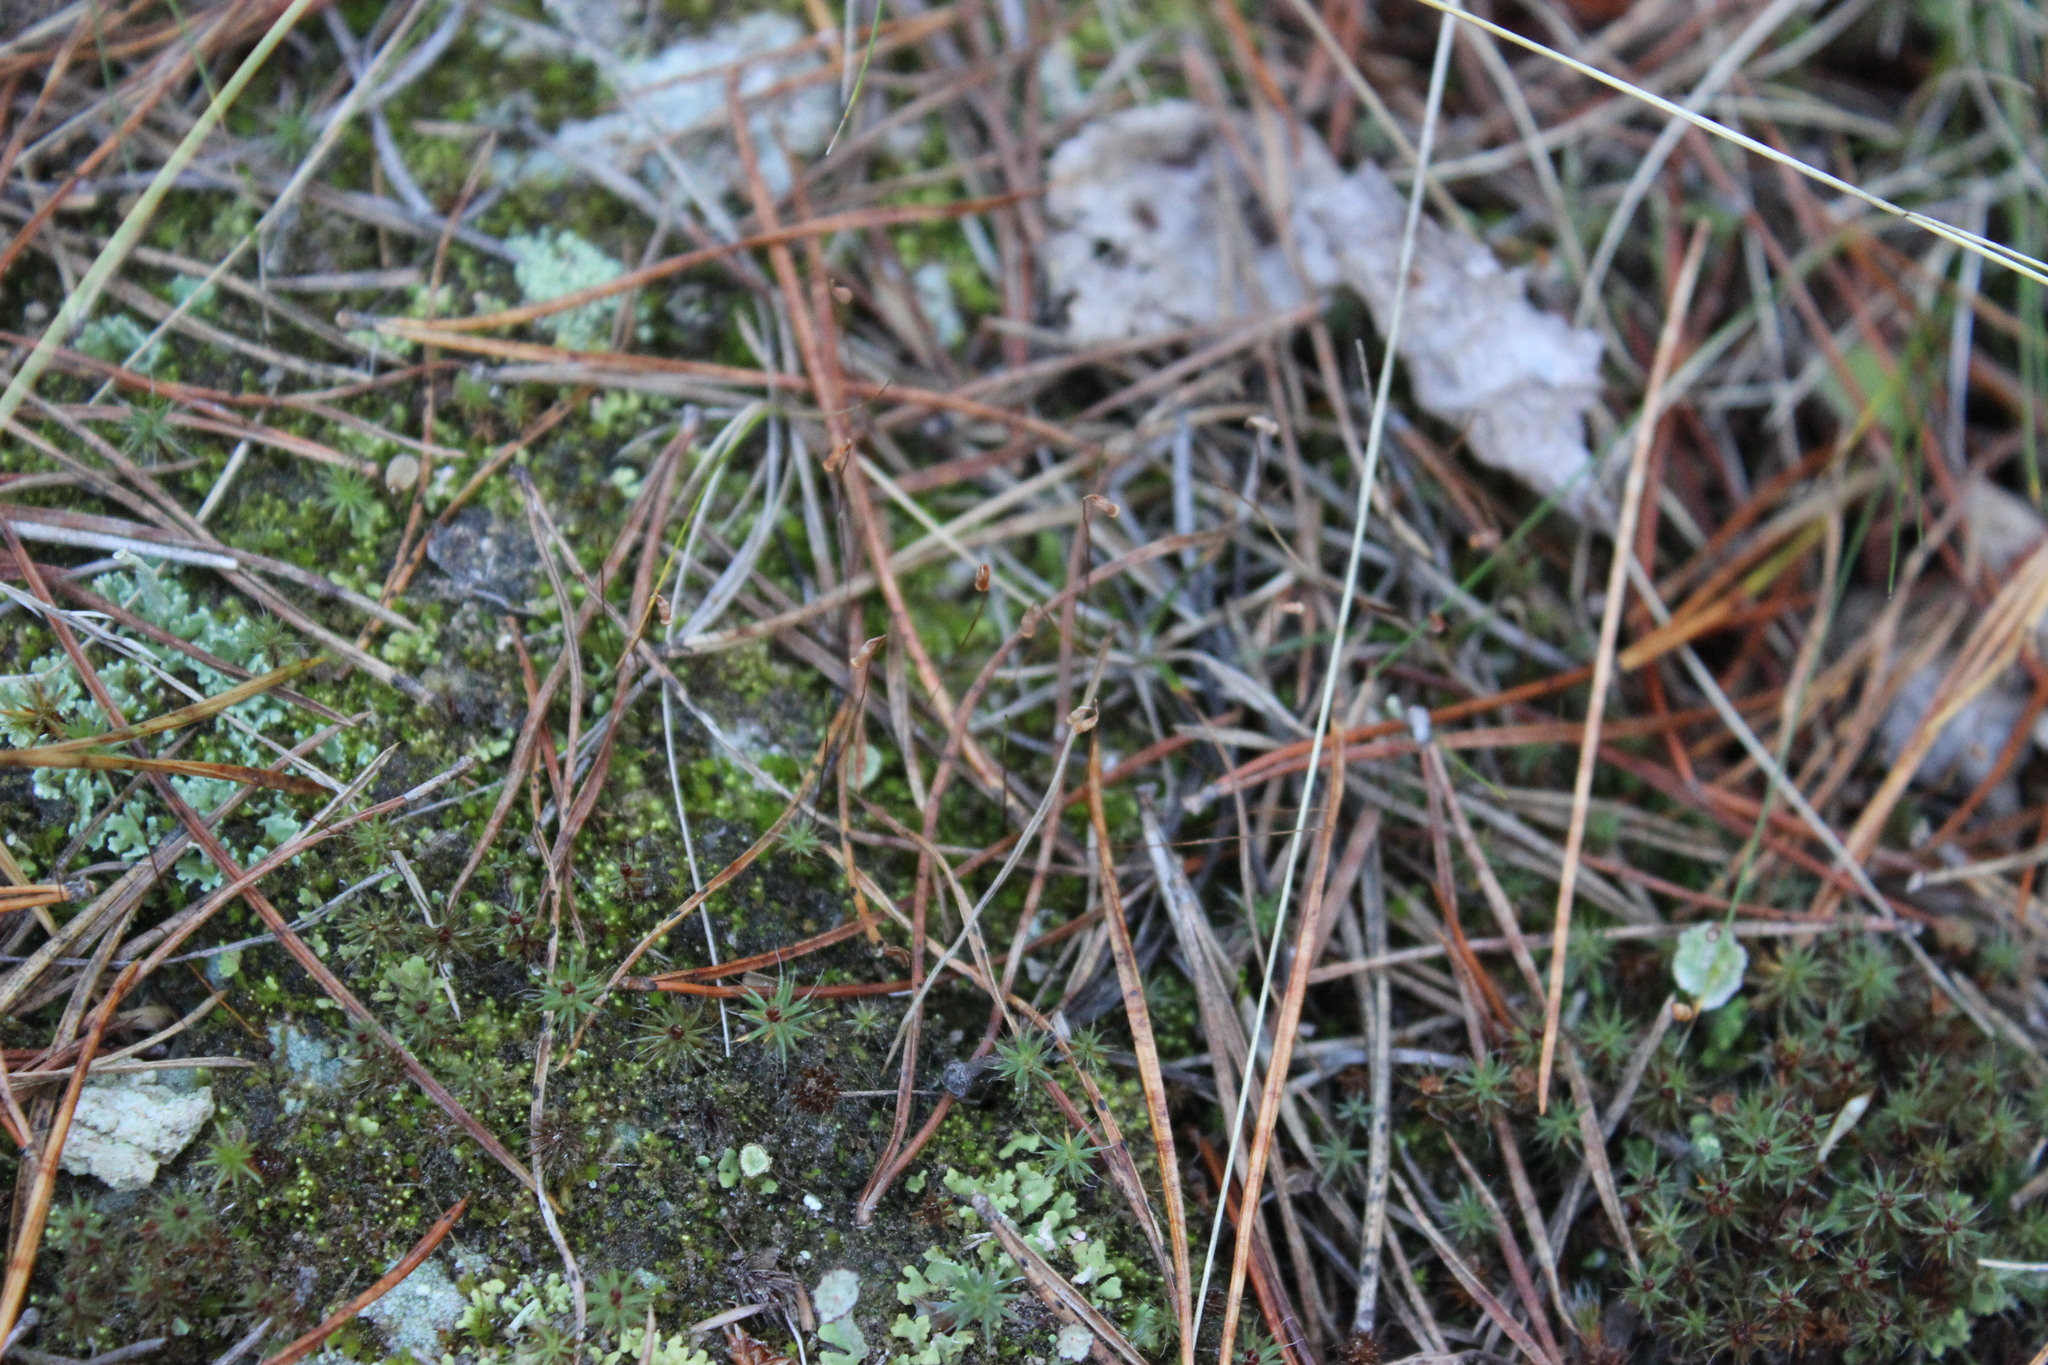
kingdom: Plantae
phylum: Bryophyta
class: Polytrichopsida
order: Polytrichales
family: Polytrichaceae
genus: Polytrichum
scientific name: Polytrichum piliferum
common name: Bristly haircap
